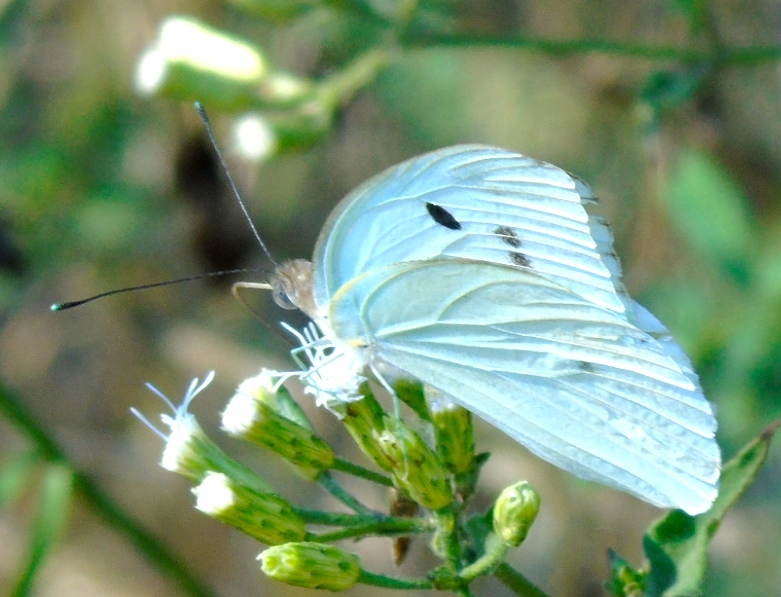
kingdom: Animalia
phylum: Arthropoda
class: Insecta
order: Lepidoptera
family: Pieridae
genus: Ganyra
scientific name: Ganyra josephina
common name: Giant white
